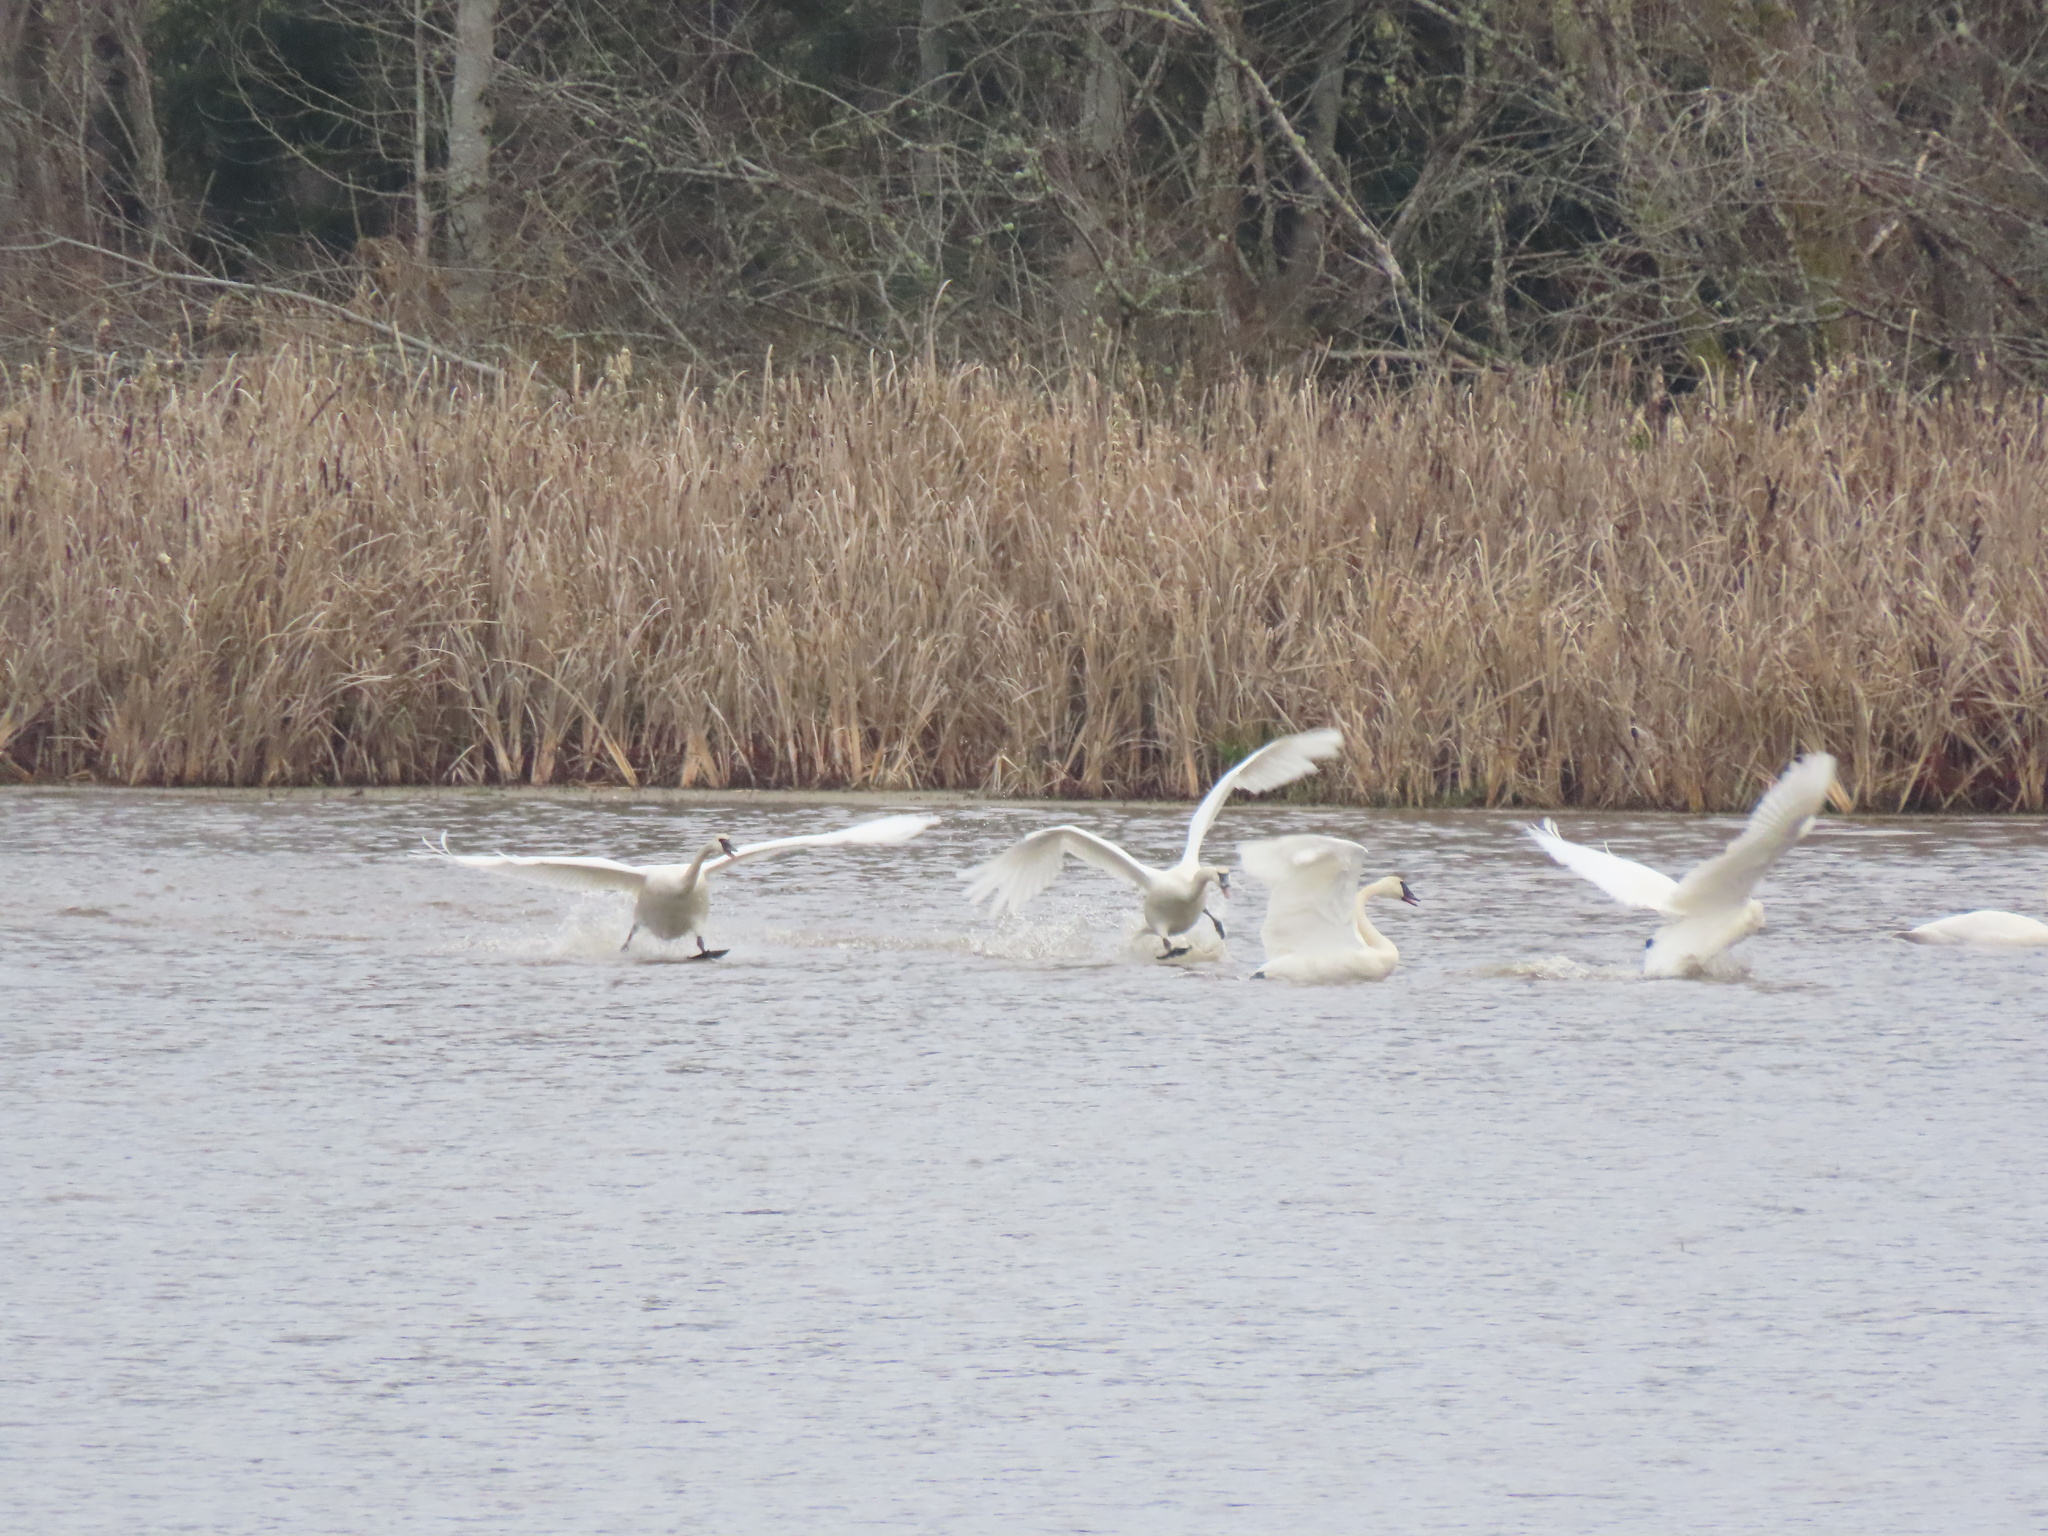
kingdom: Animalia
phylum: Chordata
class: Aves
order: Anseriformes
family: Anatidae
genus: Cygnus
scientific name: Cygnus buccinator
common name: Trumpeter swan
